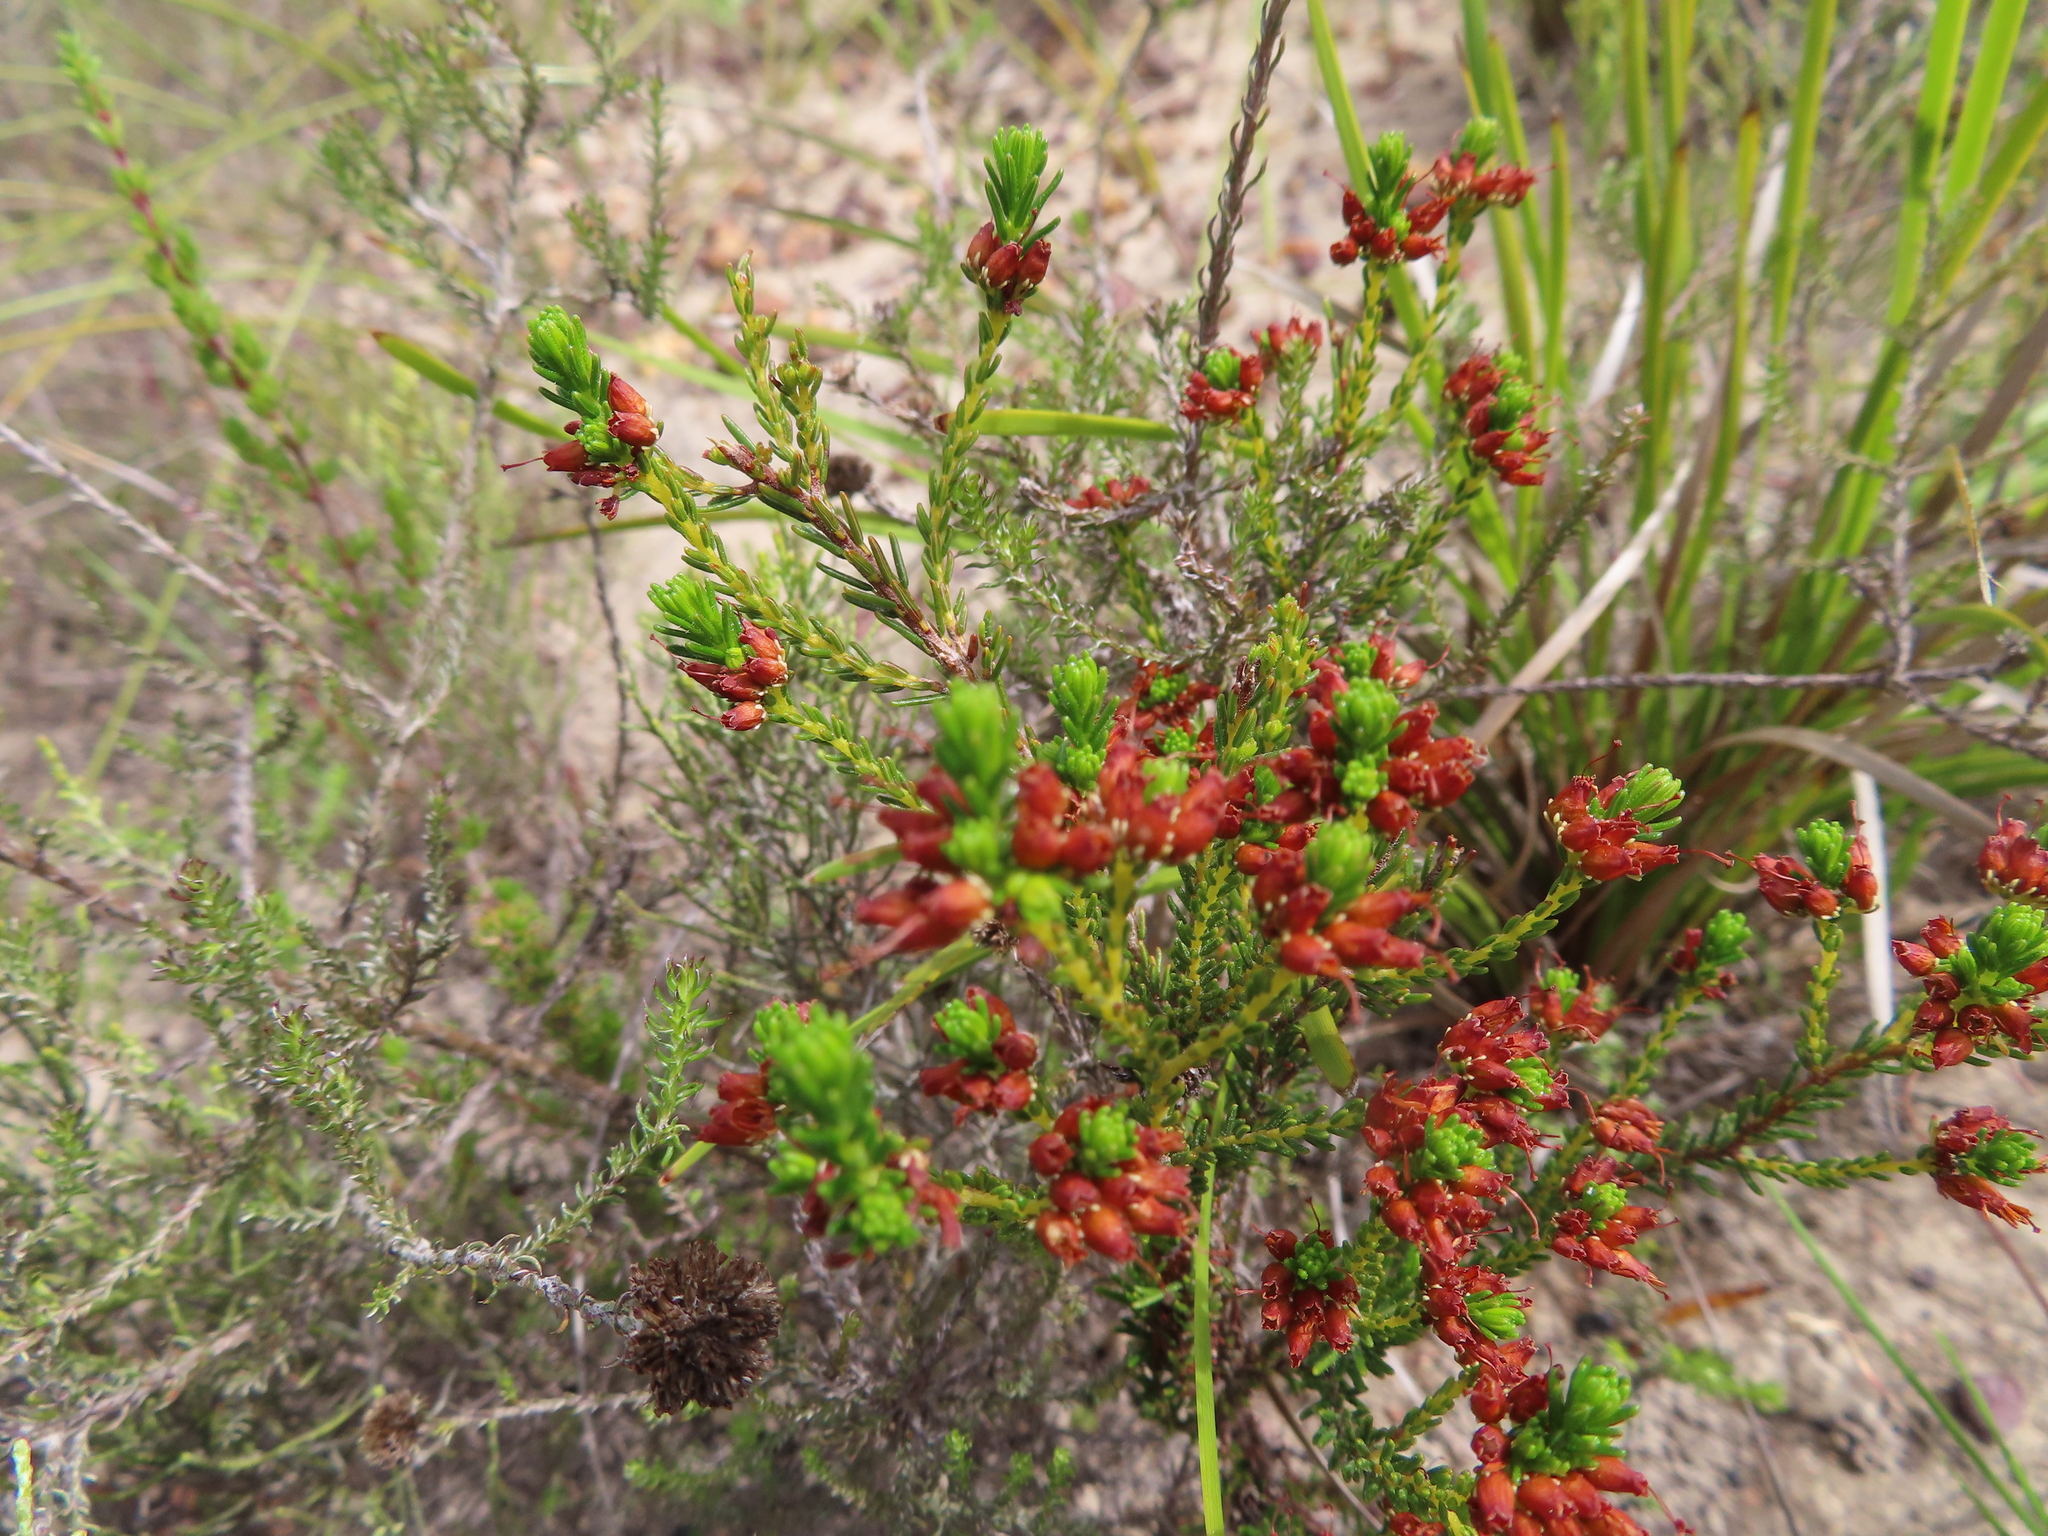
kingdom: Plantae
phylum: Tracheophyta
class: Magnoliopsida
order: Ericales
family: Ericaceae
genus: Erica
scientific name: Erica ustulescens
